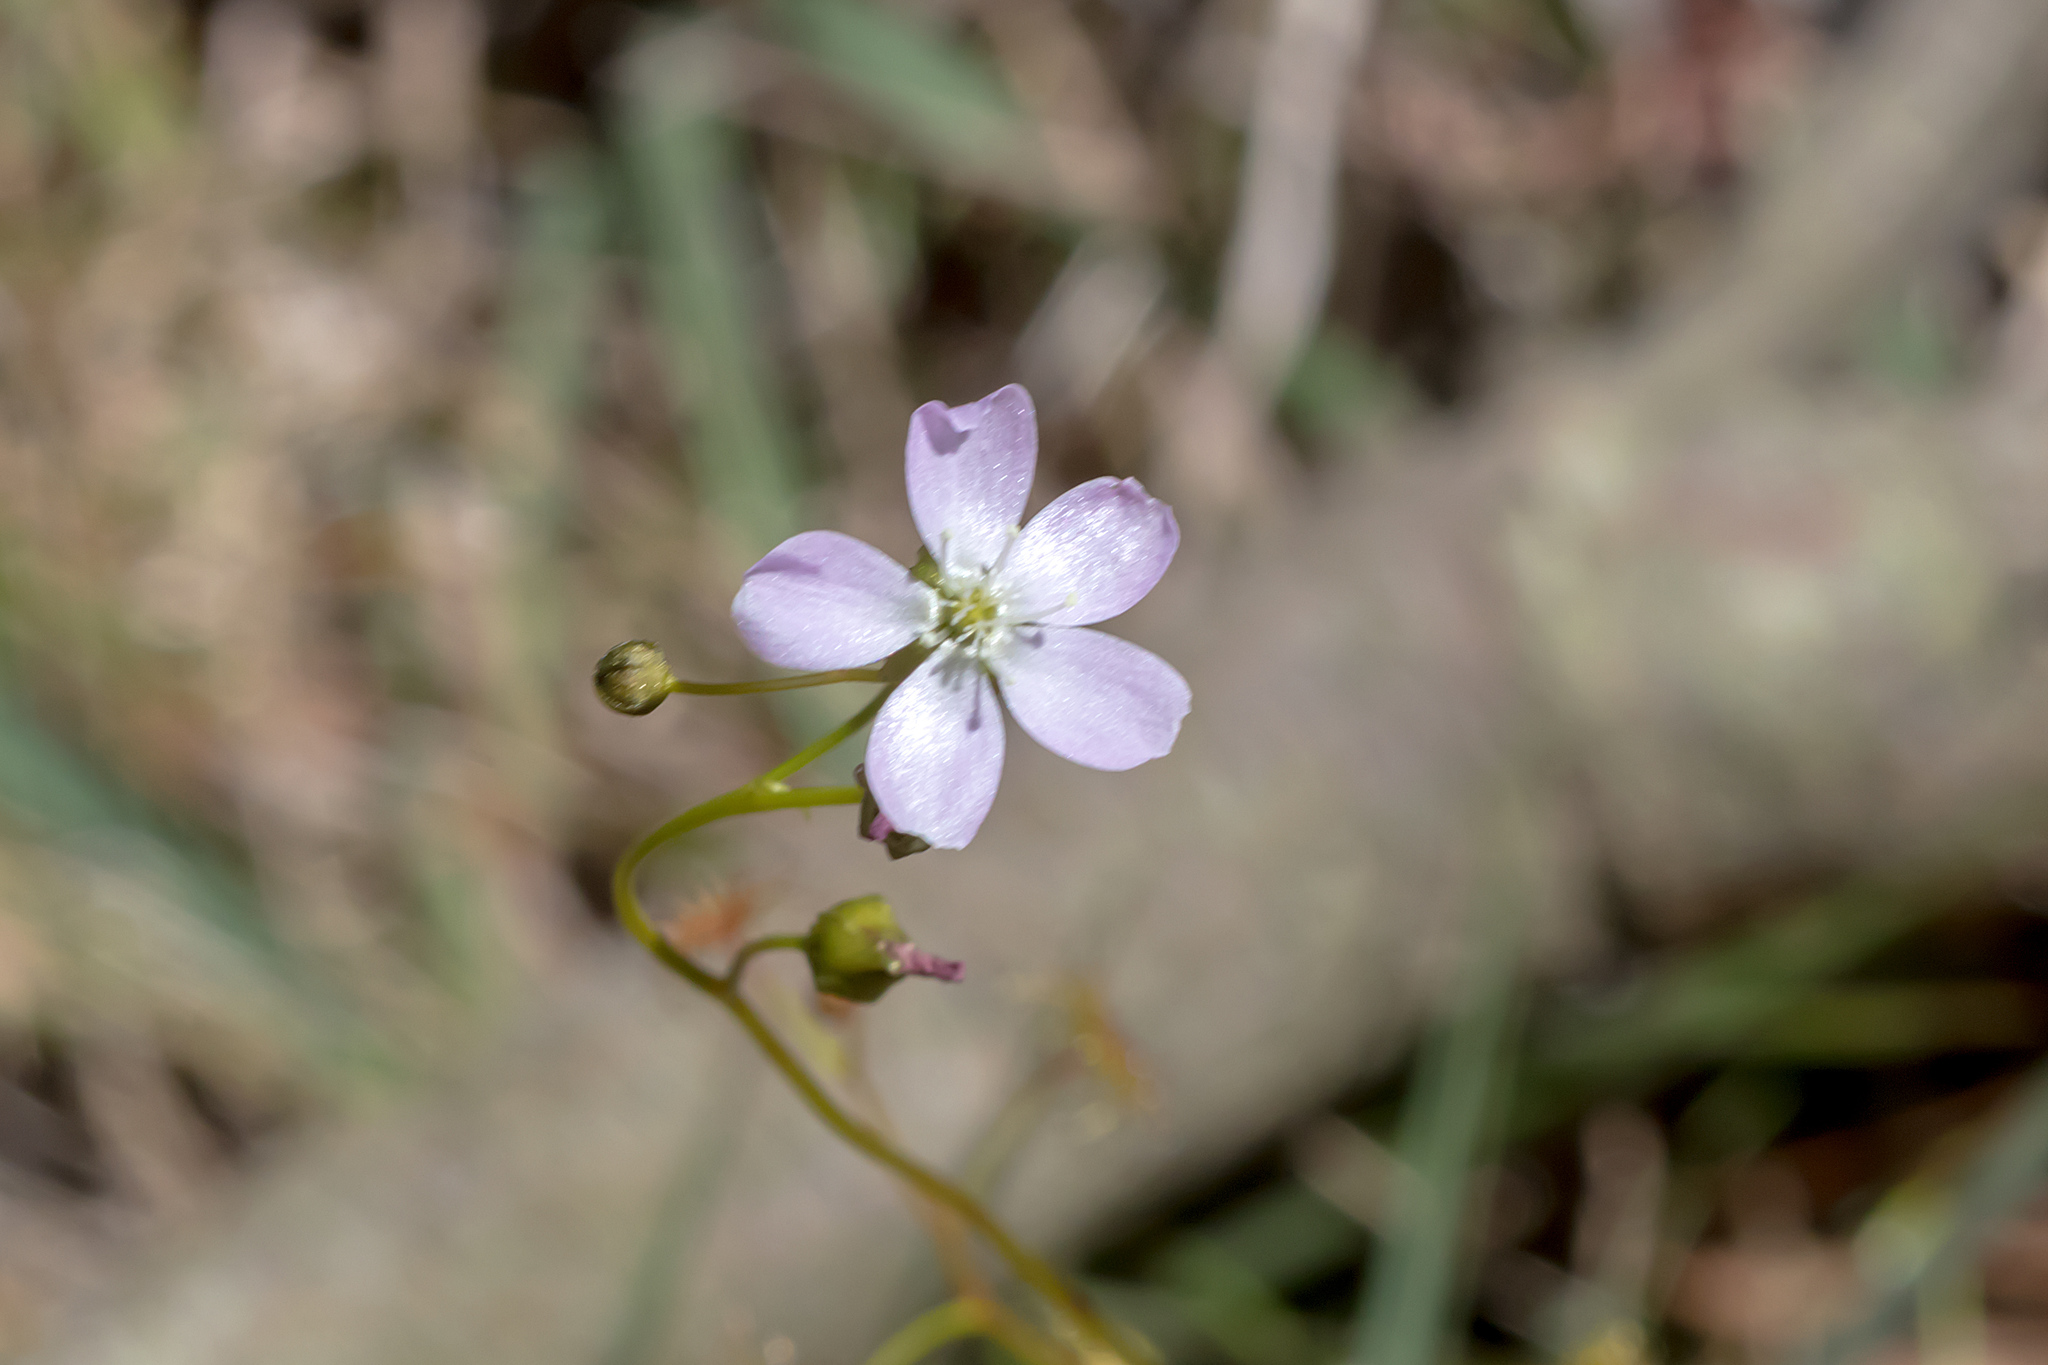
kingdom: Plantae
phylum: Tracheophyta
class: Magnoliopsida
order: Caryophyllales
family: Droseraceae
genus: Drosera
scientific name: Drosera peltata
